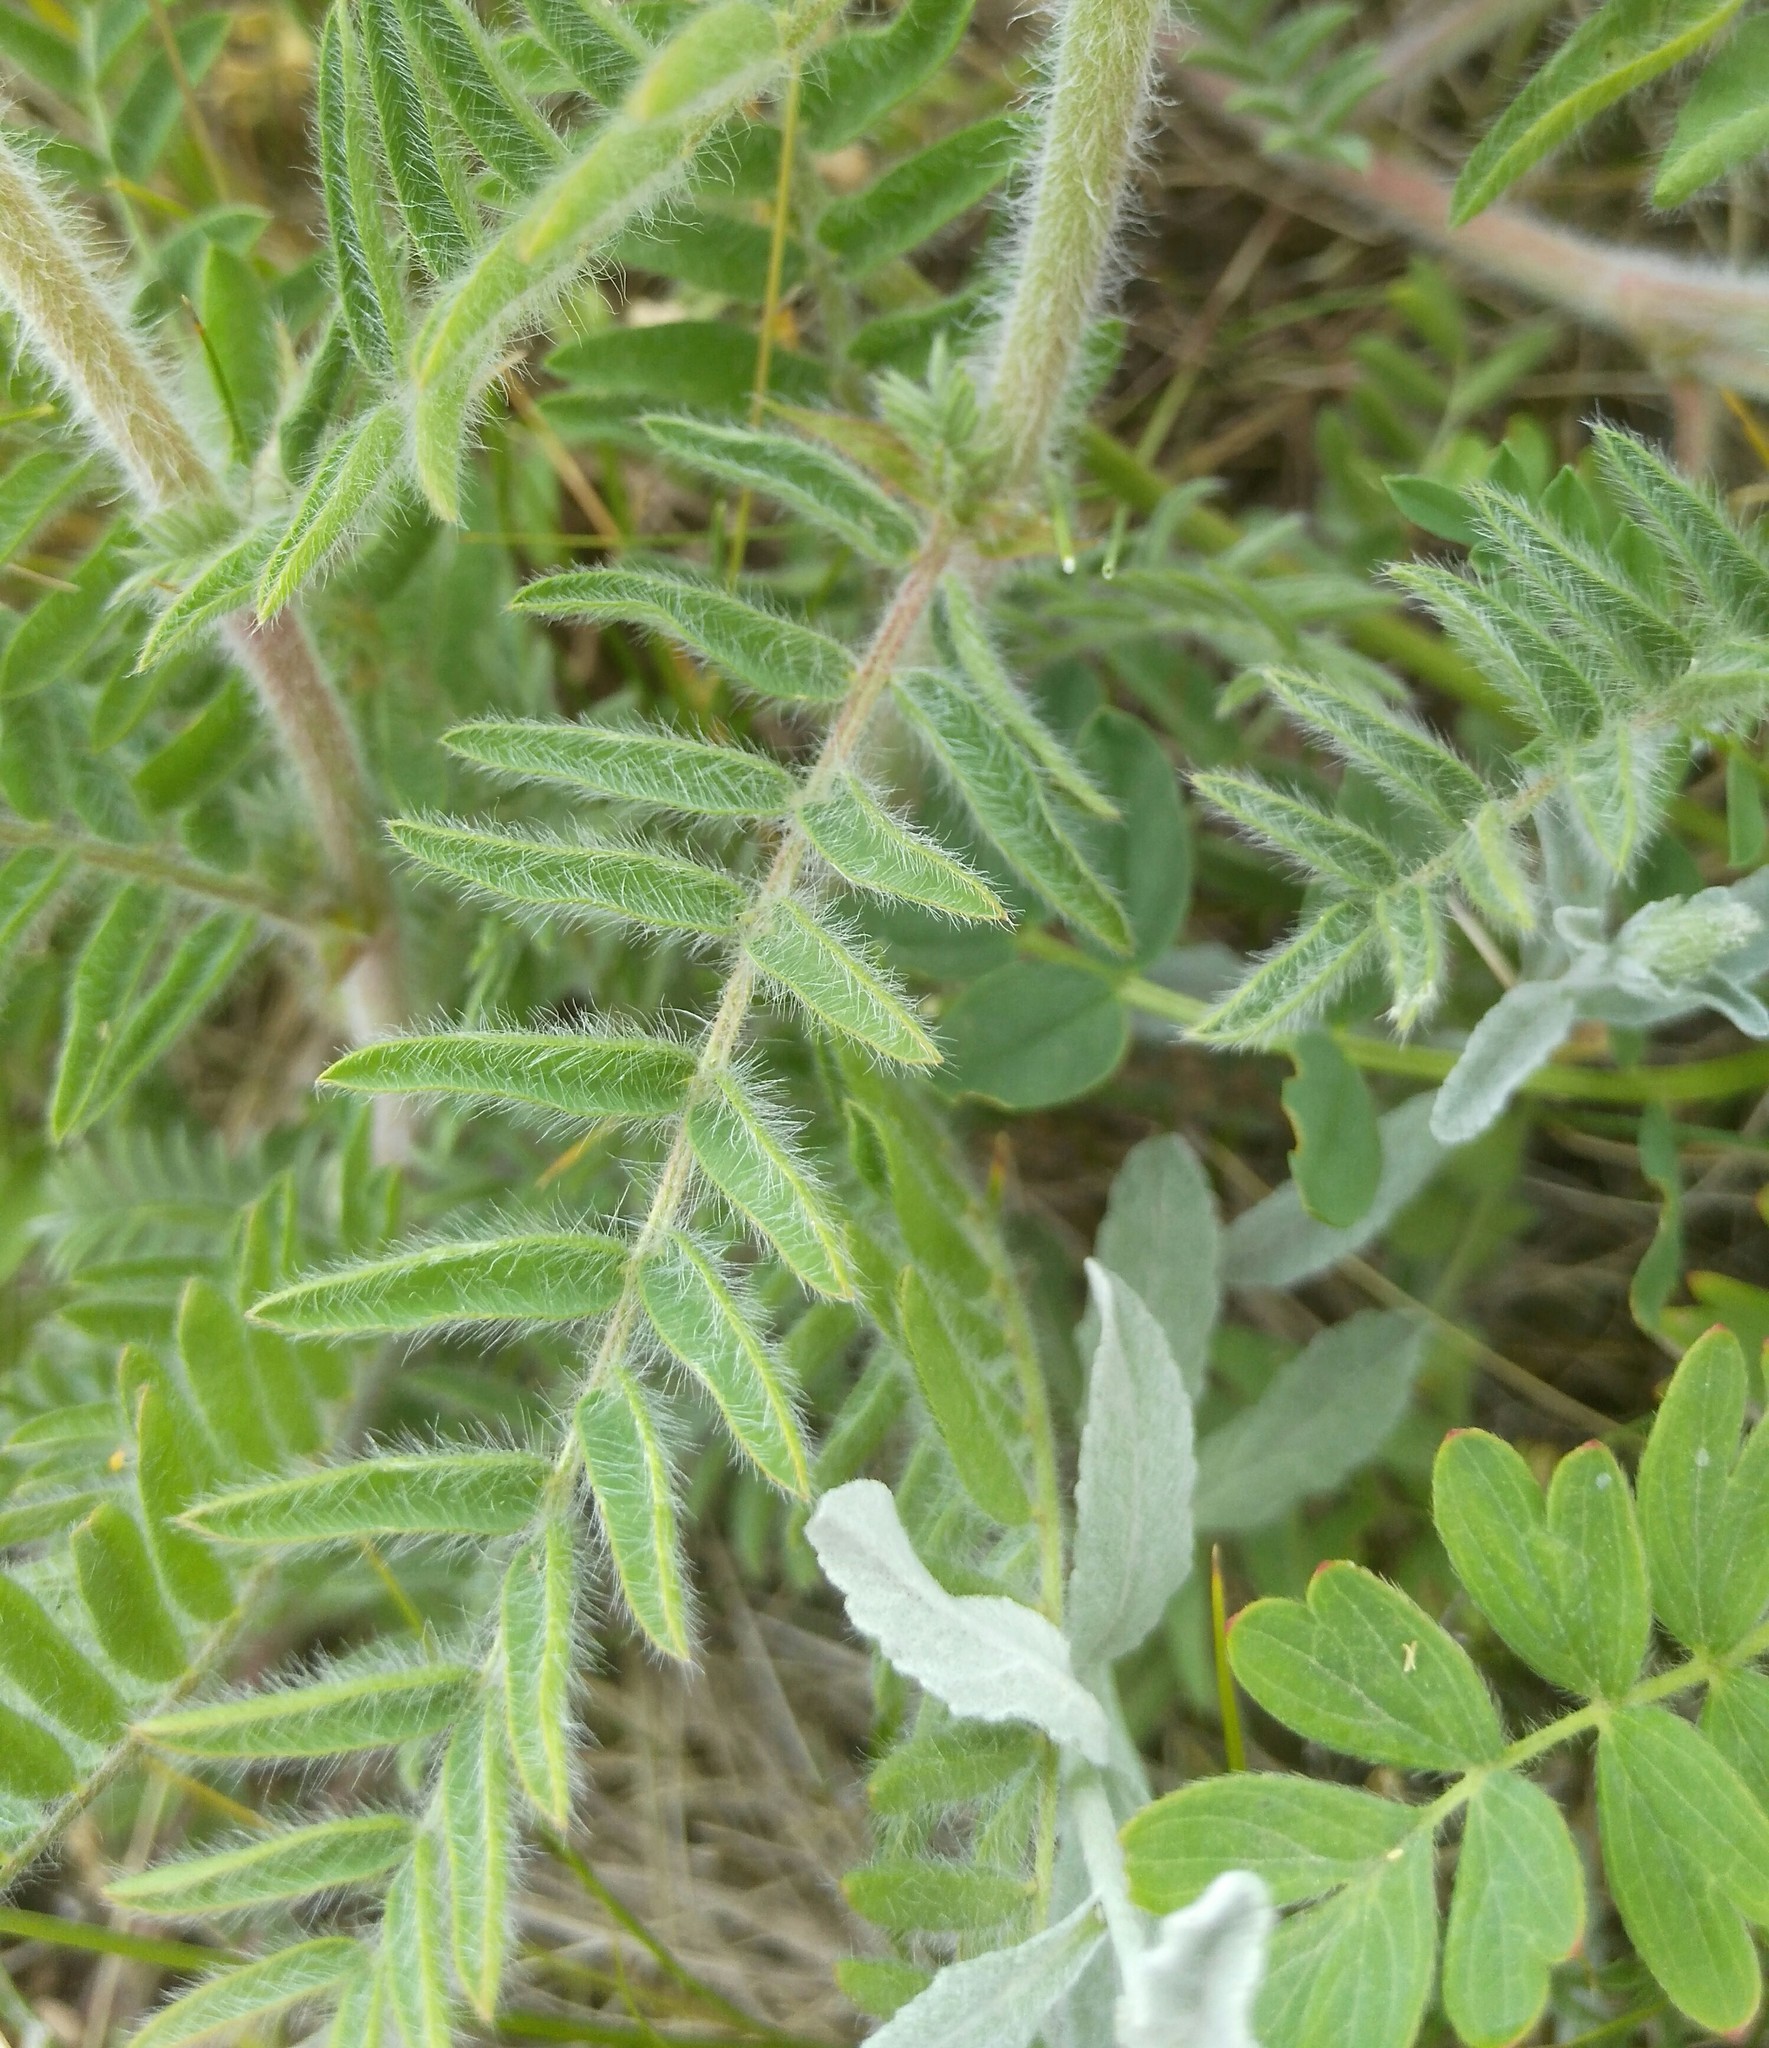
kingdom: Plantae
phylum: Tracheophyta
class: Magnoliopsida
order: Fabales
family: Fabaceae
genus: Oxytropis
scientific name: Oxytropis pilosa
